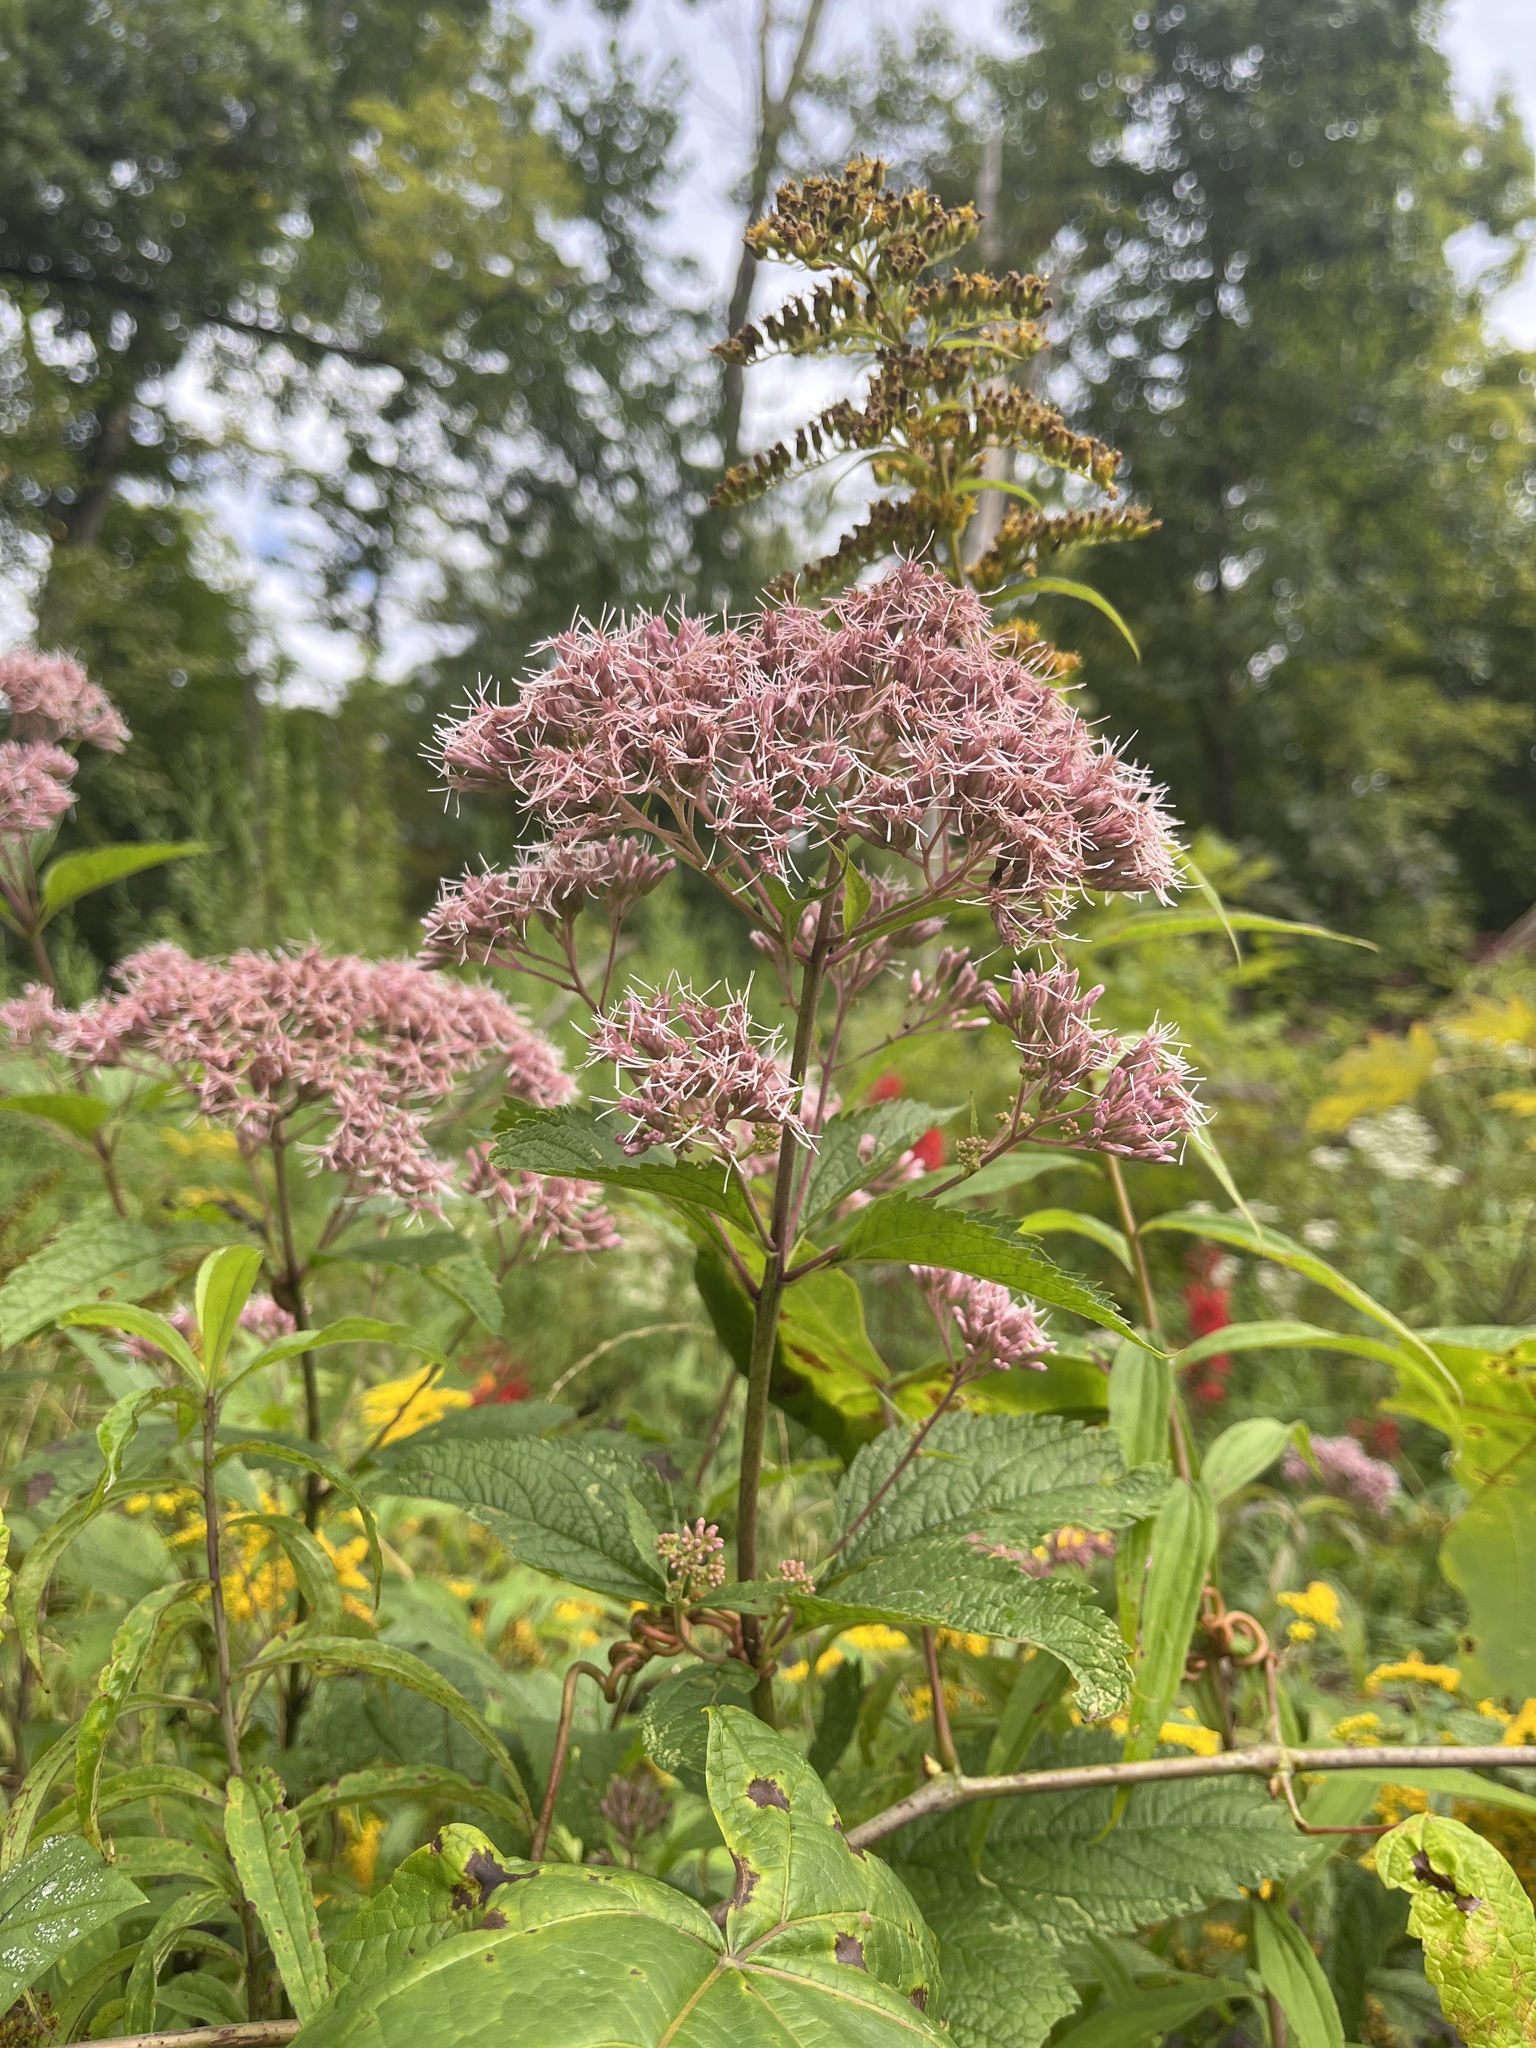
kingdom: Plantae
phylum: Tracheophyta
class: Magnoliopsida
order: Asterales
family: Asteraceae
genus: Eutrochium
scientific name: Eutrochium dubium
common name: Coastal plain joe pye weed
